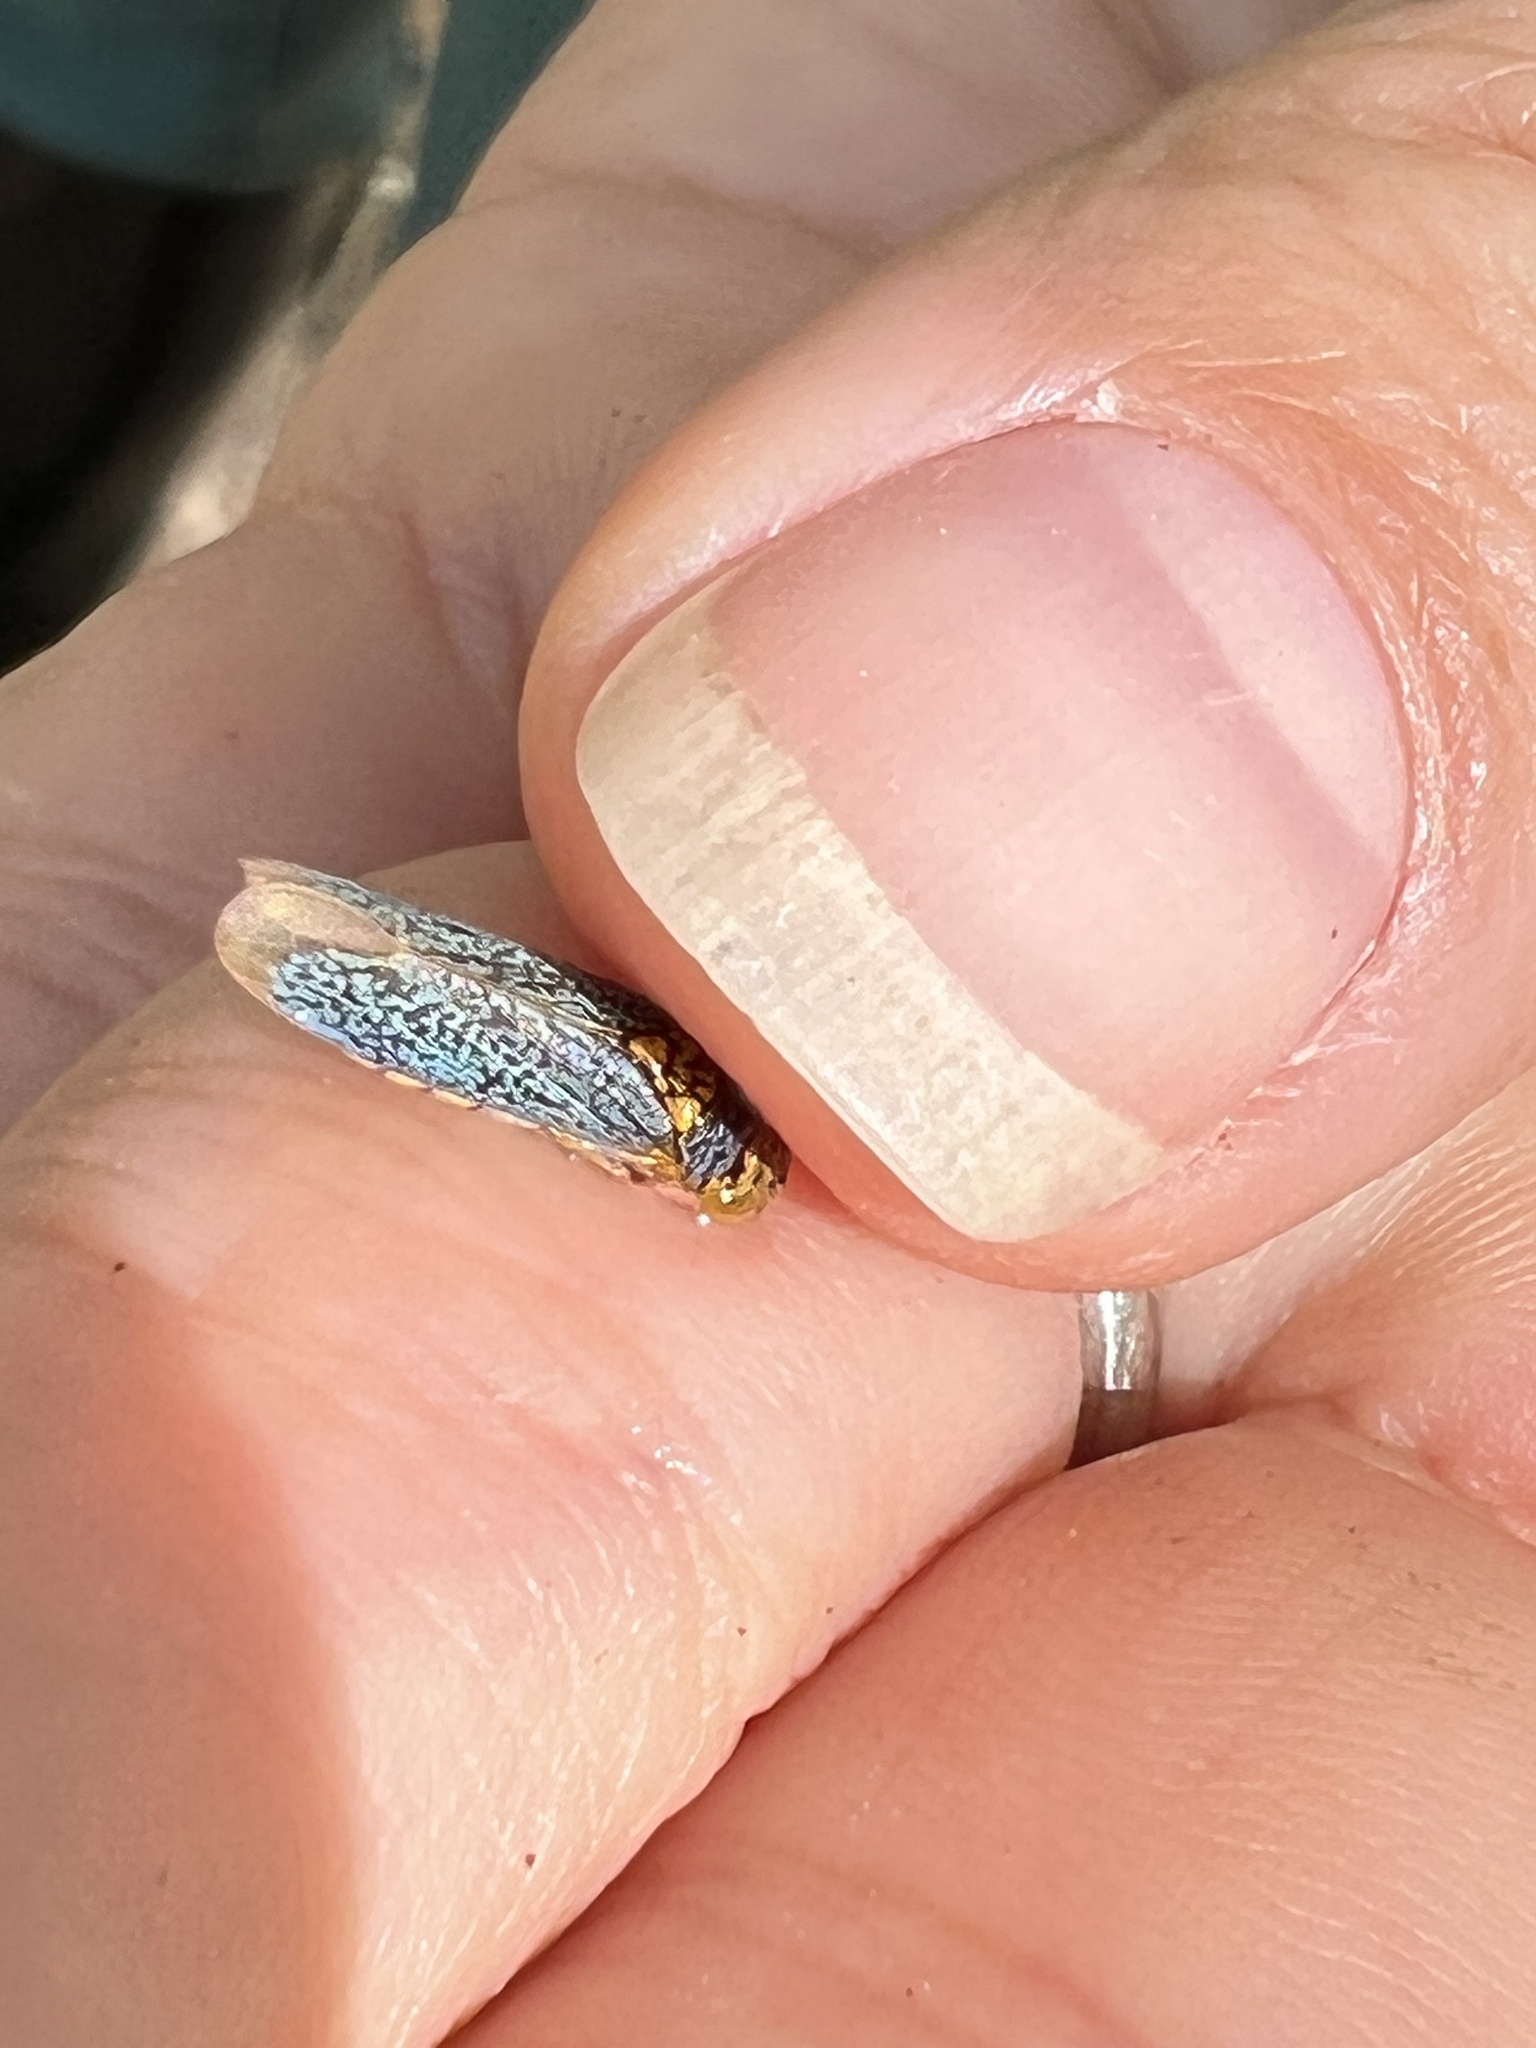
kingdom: Animalia
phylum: Arthropoda
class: Insecta
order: Hemiptera
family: Cicadellidae
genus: Oncometopia
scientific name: Oncometopia orbona
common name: Broad-headed sharpshooter
